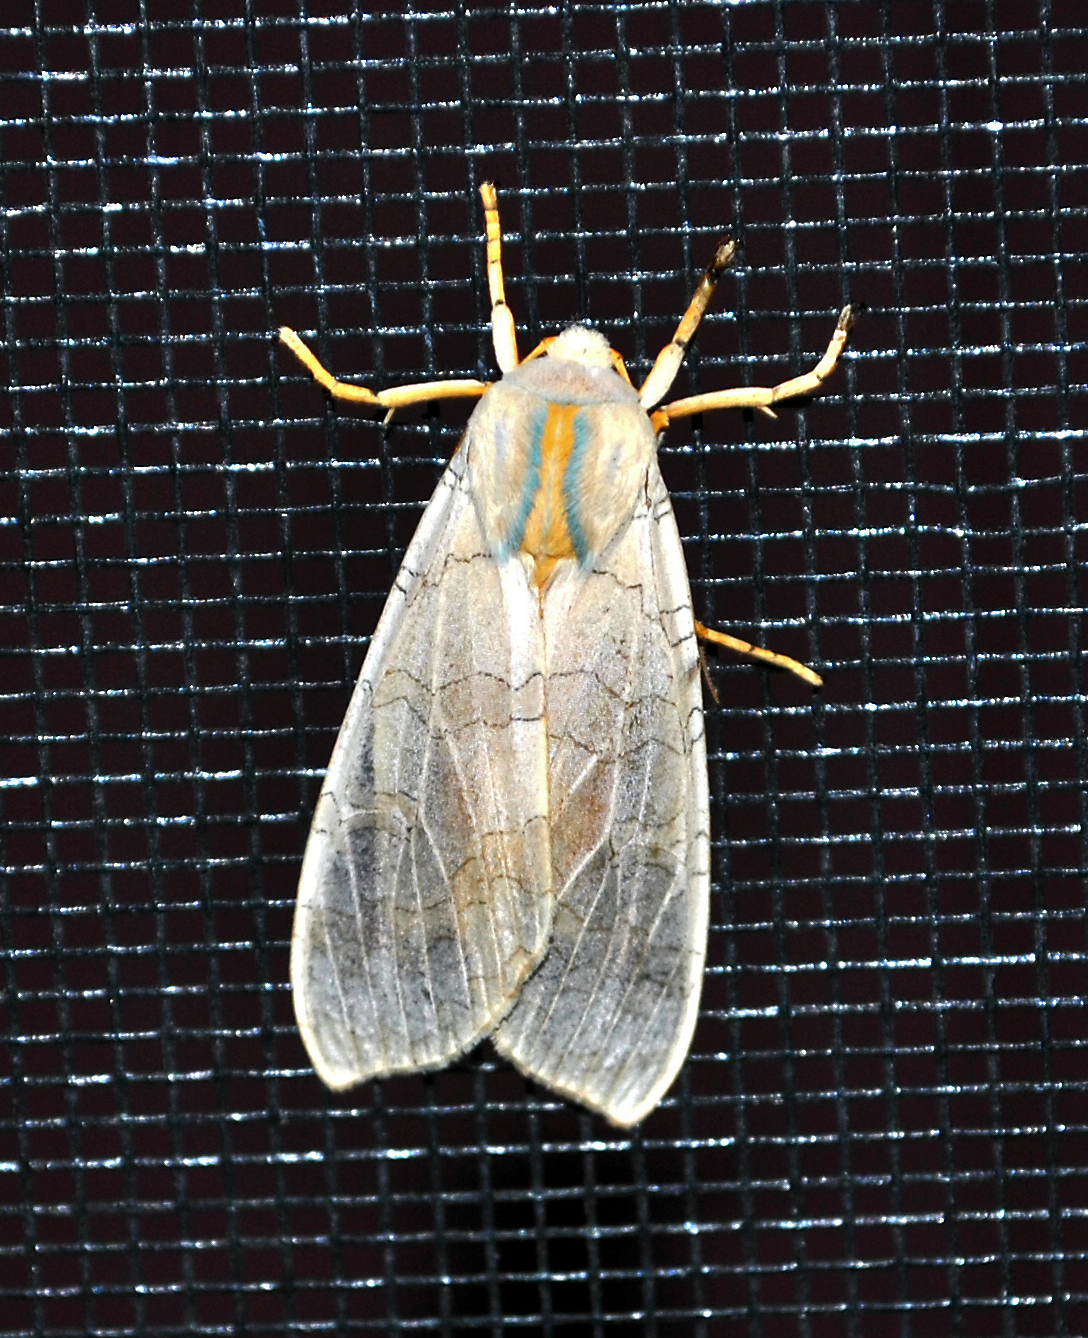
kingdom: Animalia
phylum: Arthropoda
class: Insecta
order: Lepidoptera
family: Erebidae
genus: Halysidota
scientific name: Halysidota tessellaris
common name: Banded tussock moth
